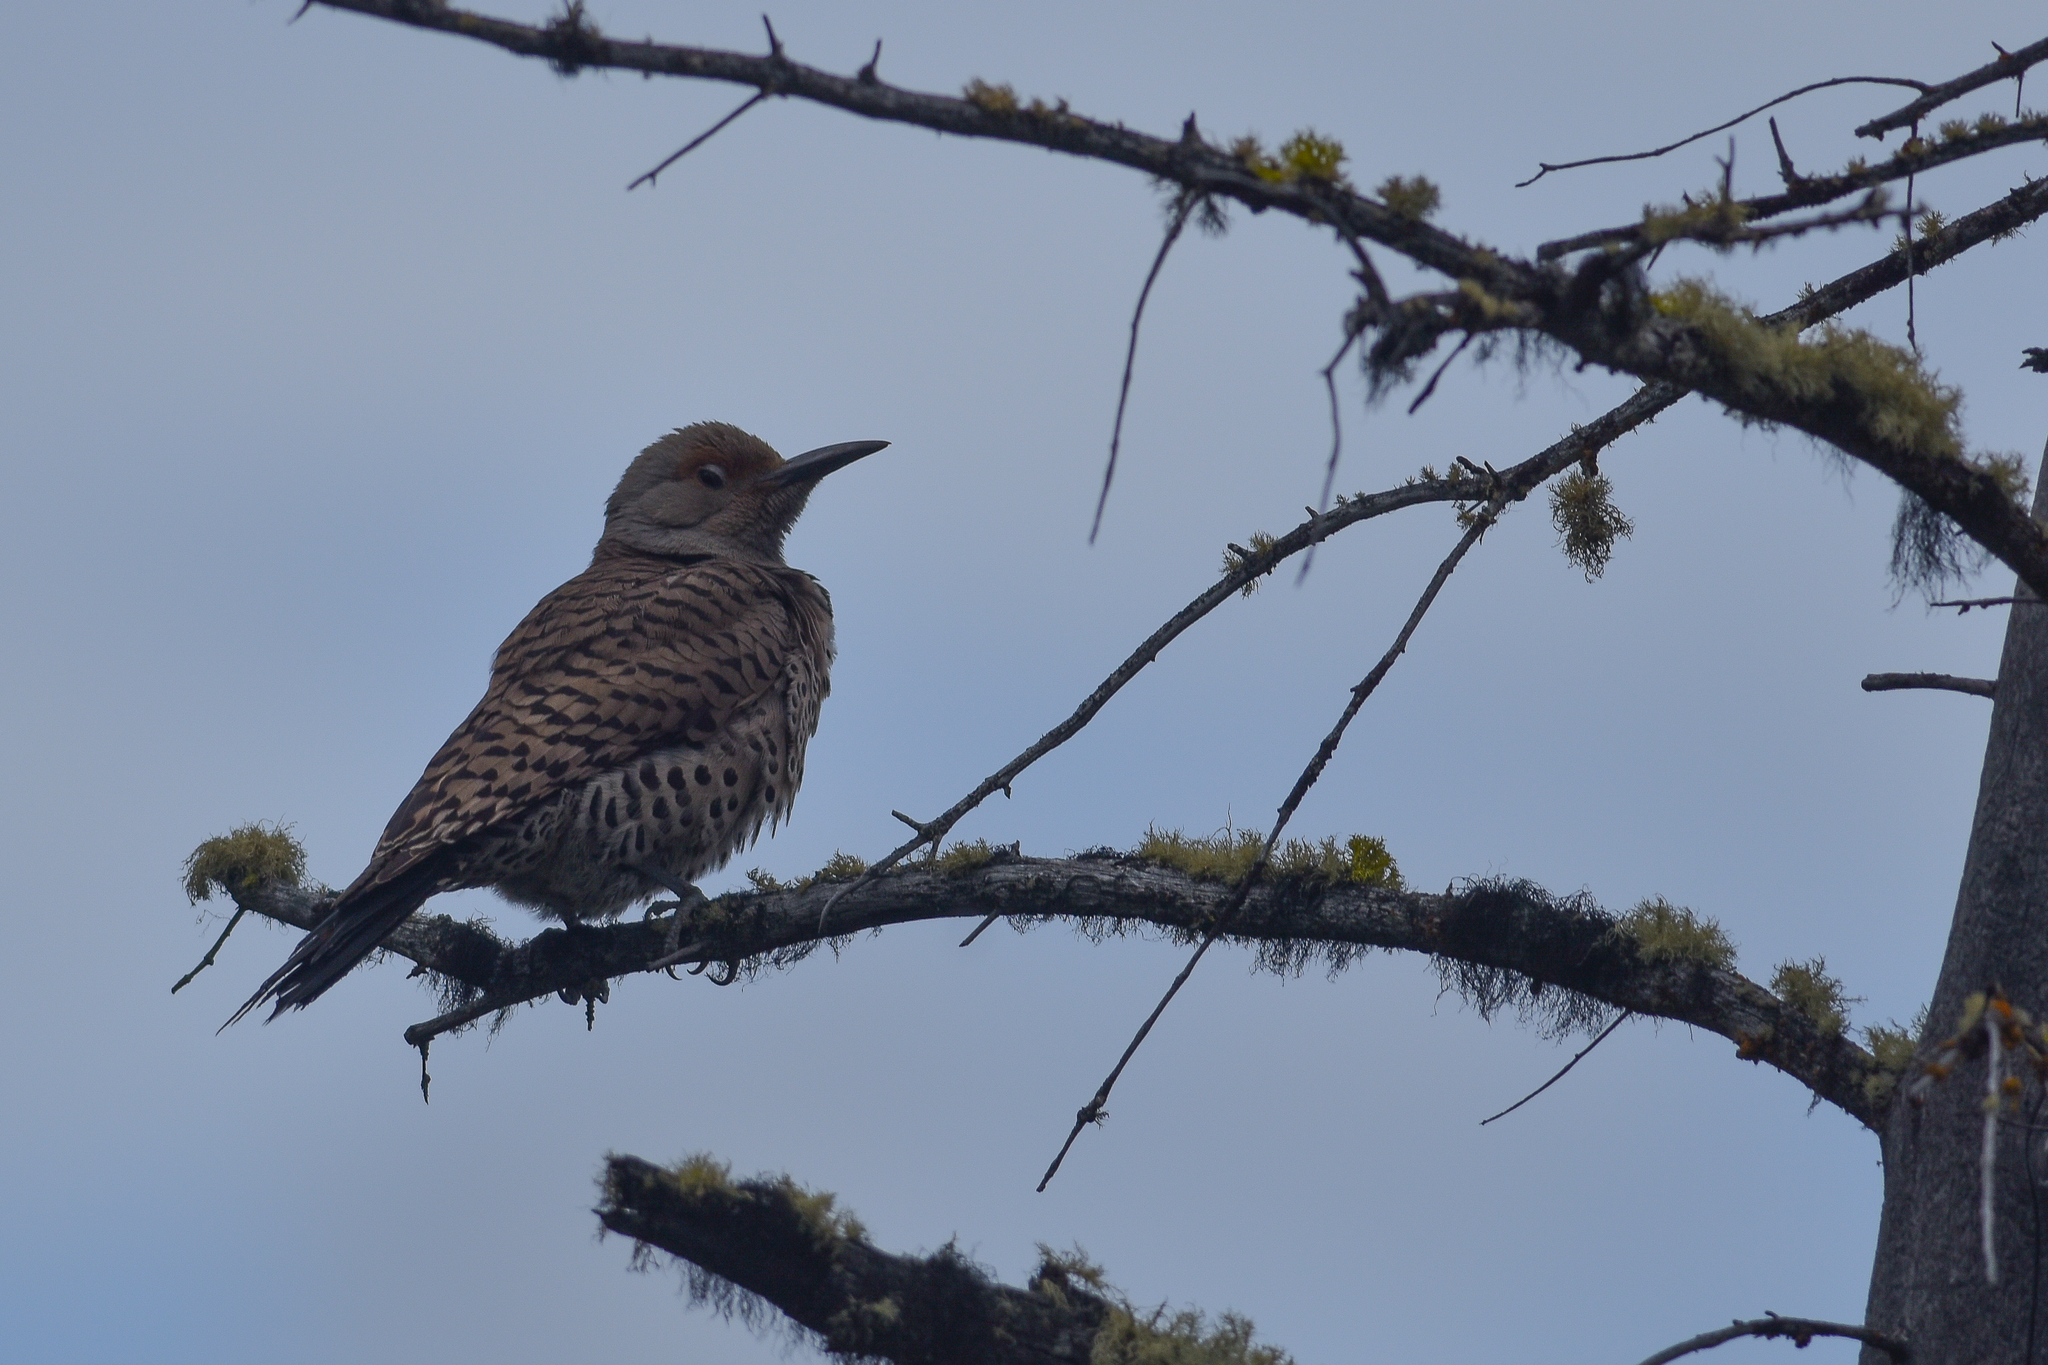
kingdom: Animalia
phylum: Chordata
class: Aves
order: Piciformes
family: Picidae
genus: Colaptes
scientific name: Colaptes auratus
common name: Northern flicker
